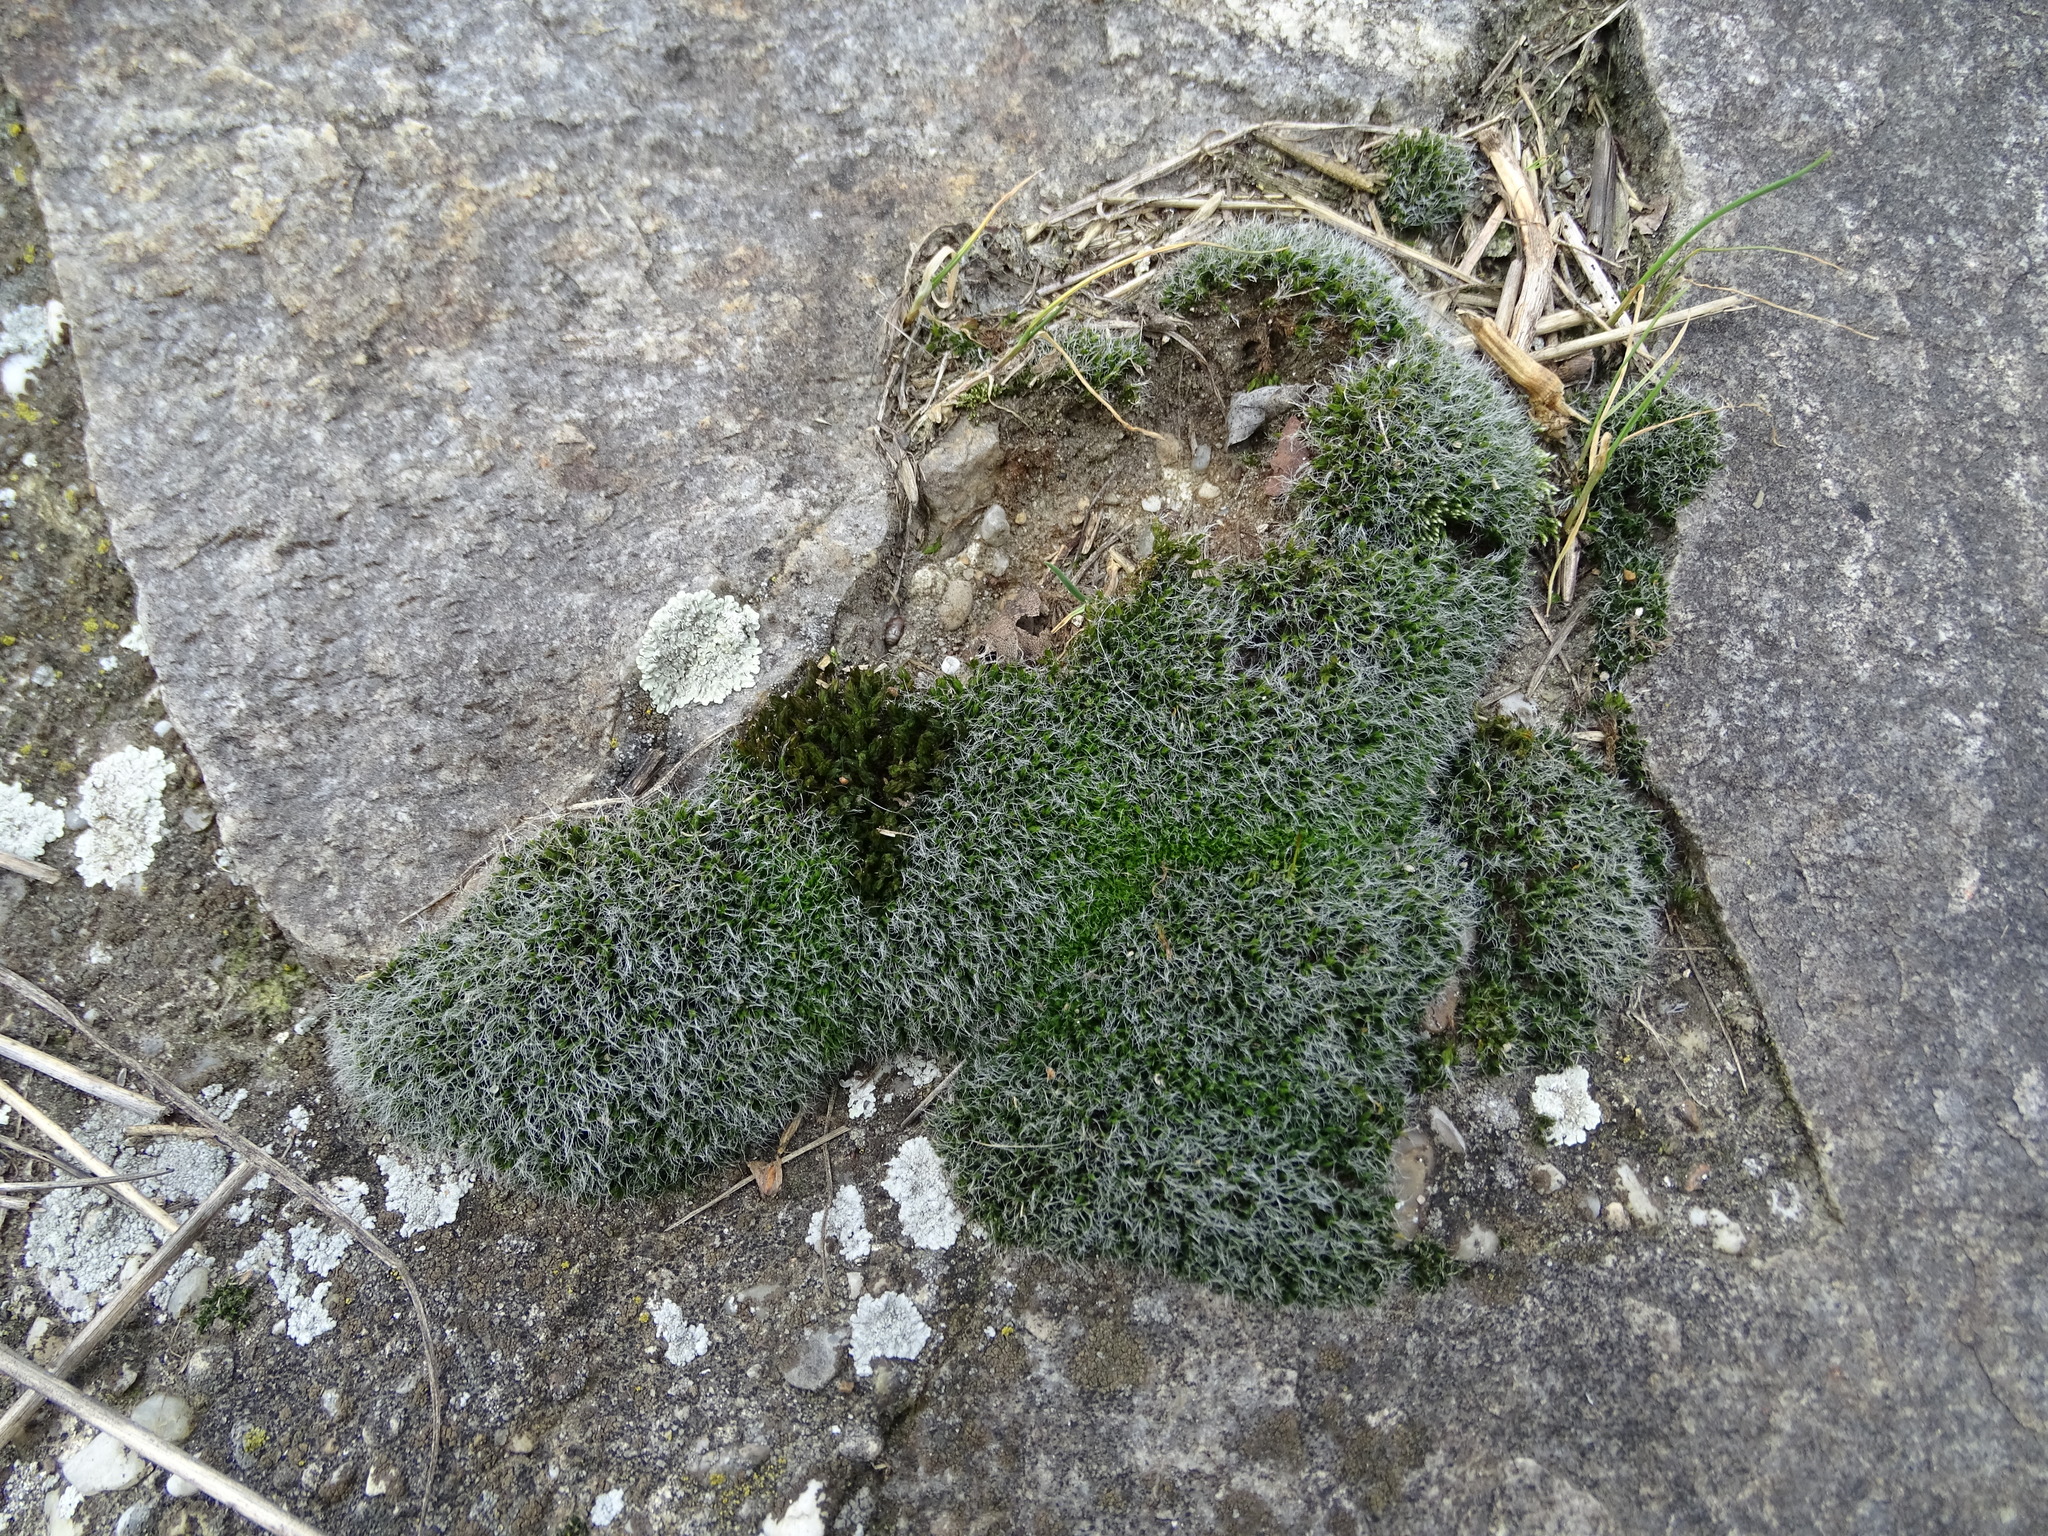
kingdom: Plantae
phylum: Bryophyta
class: Bryopsida
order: Grimmiales
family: Grimmiaceae
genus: Grimmia
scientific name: Grimmia pulvinata
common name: Grey-cushioned grimmia
